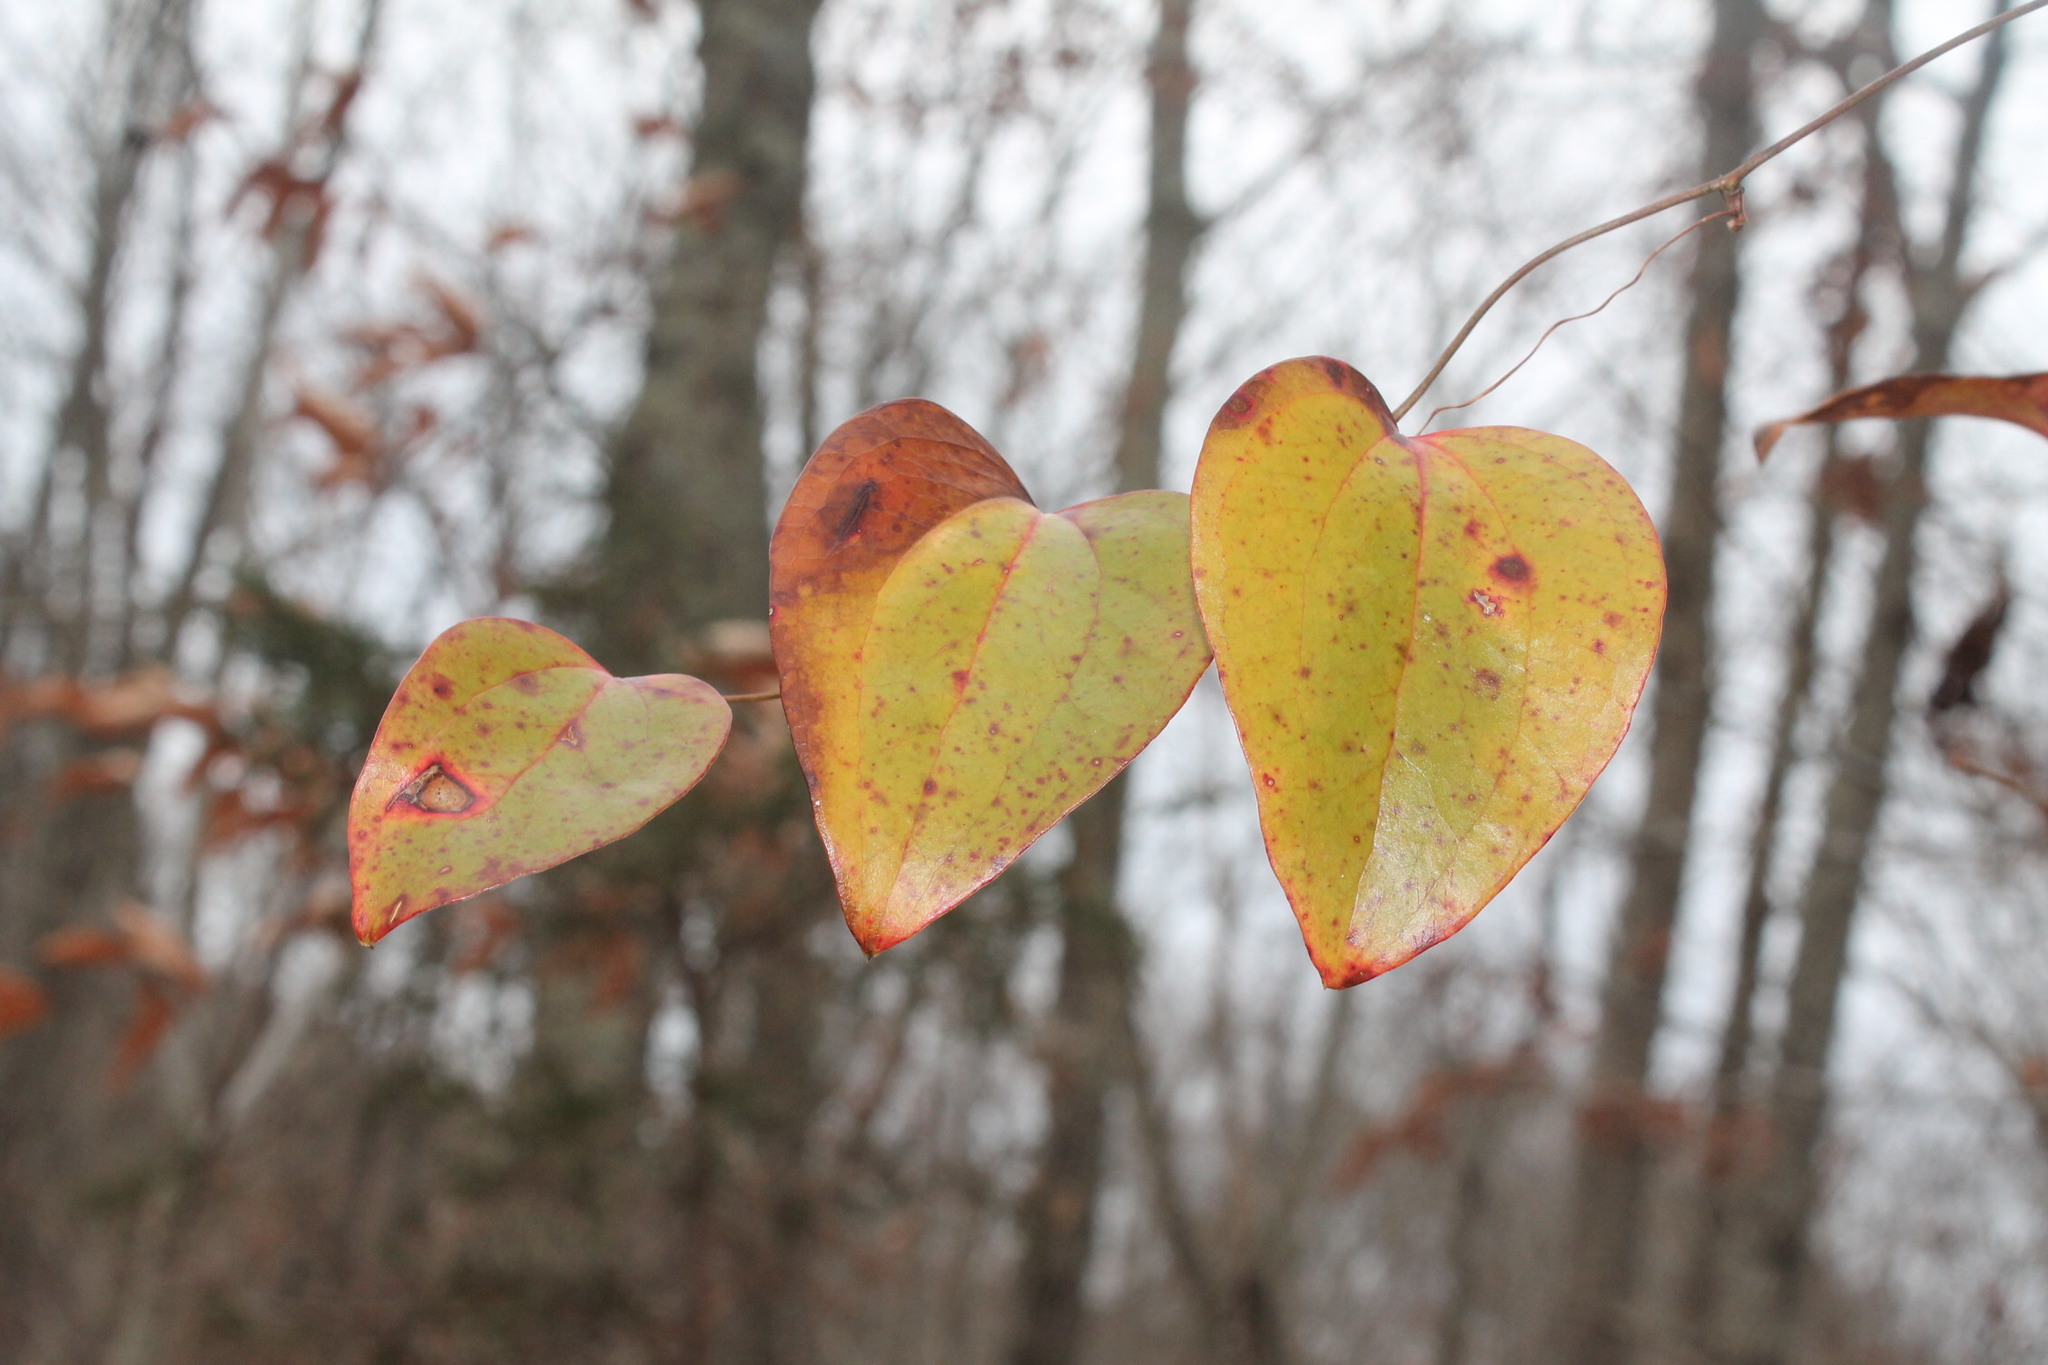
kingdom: Plantae
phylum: Tracheophyta
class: Liliopsida
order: Liliales
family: Smilacaceae
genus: Smilax
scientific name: Smilax glauca
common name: Cat greenbrier
